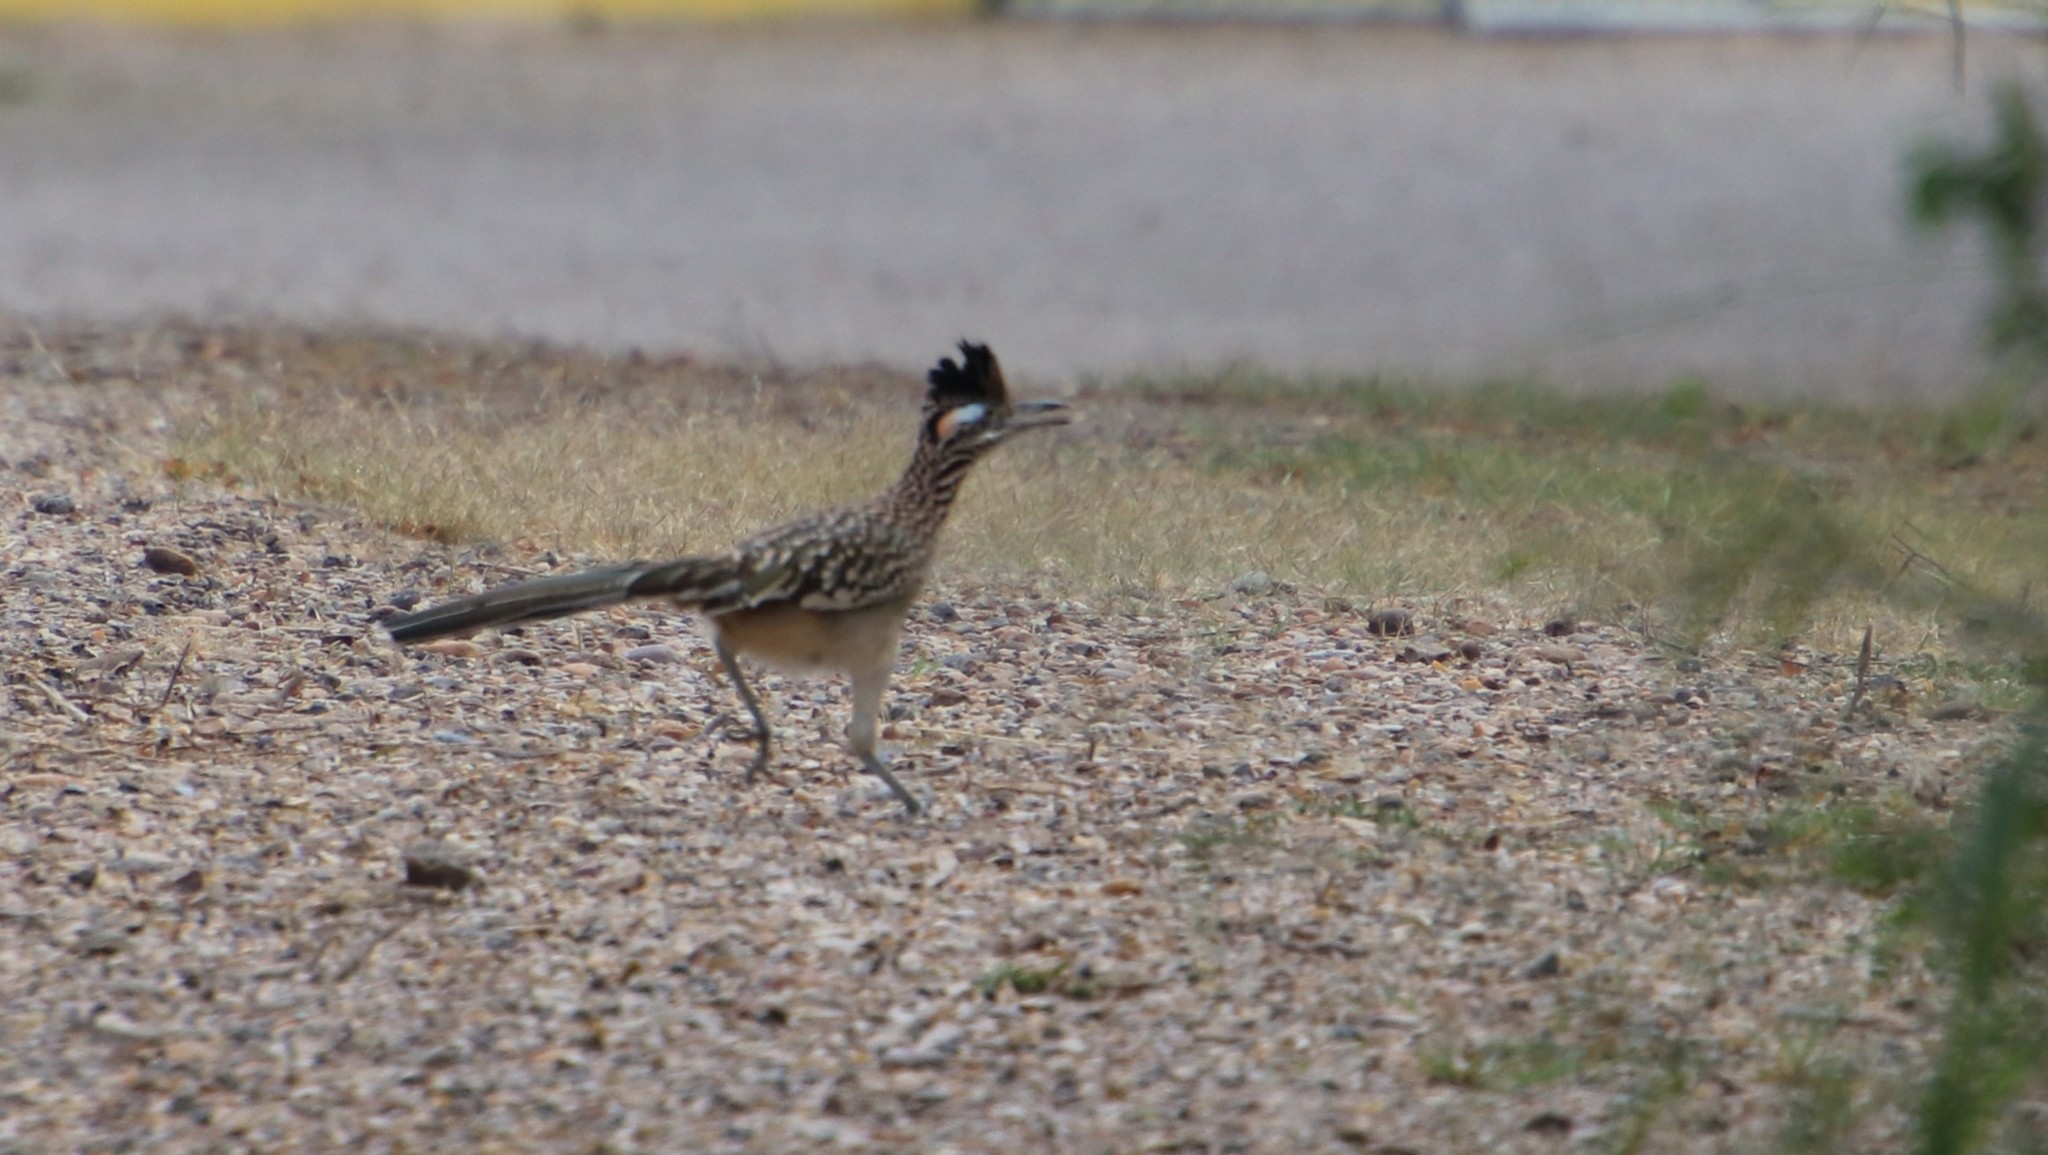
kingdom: Animalia
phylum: Chordata
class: Aves
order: Cuculiformes
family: Cuculidae
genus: Geococcyx
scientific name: Geococcyx californianus
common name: Greater roadrunner
